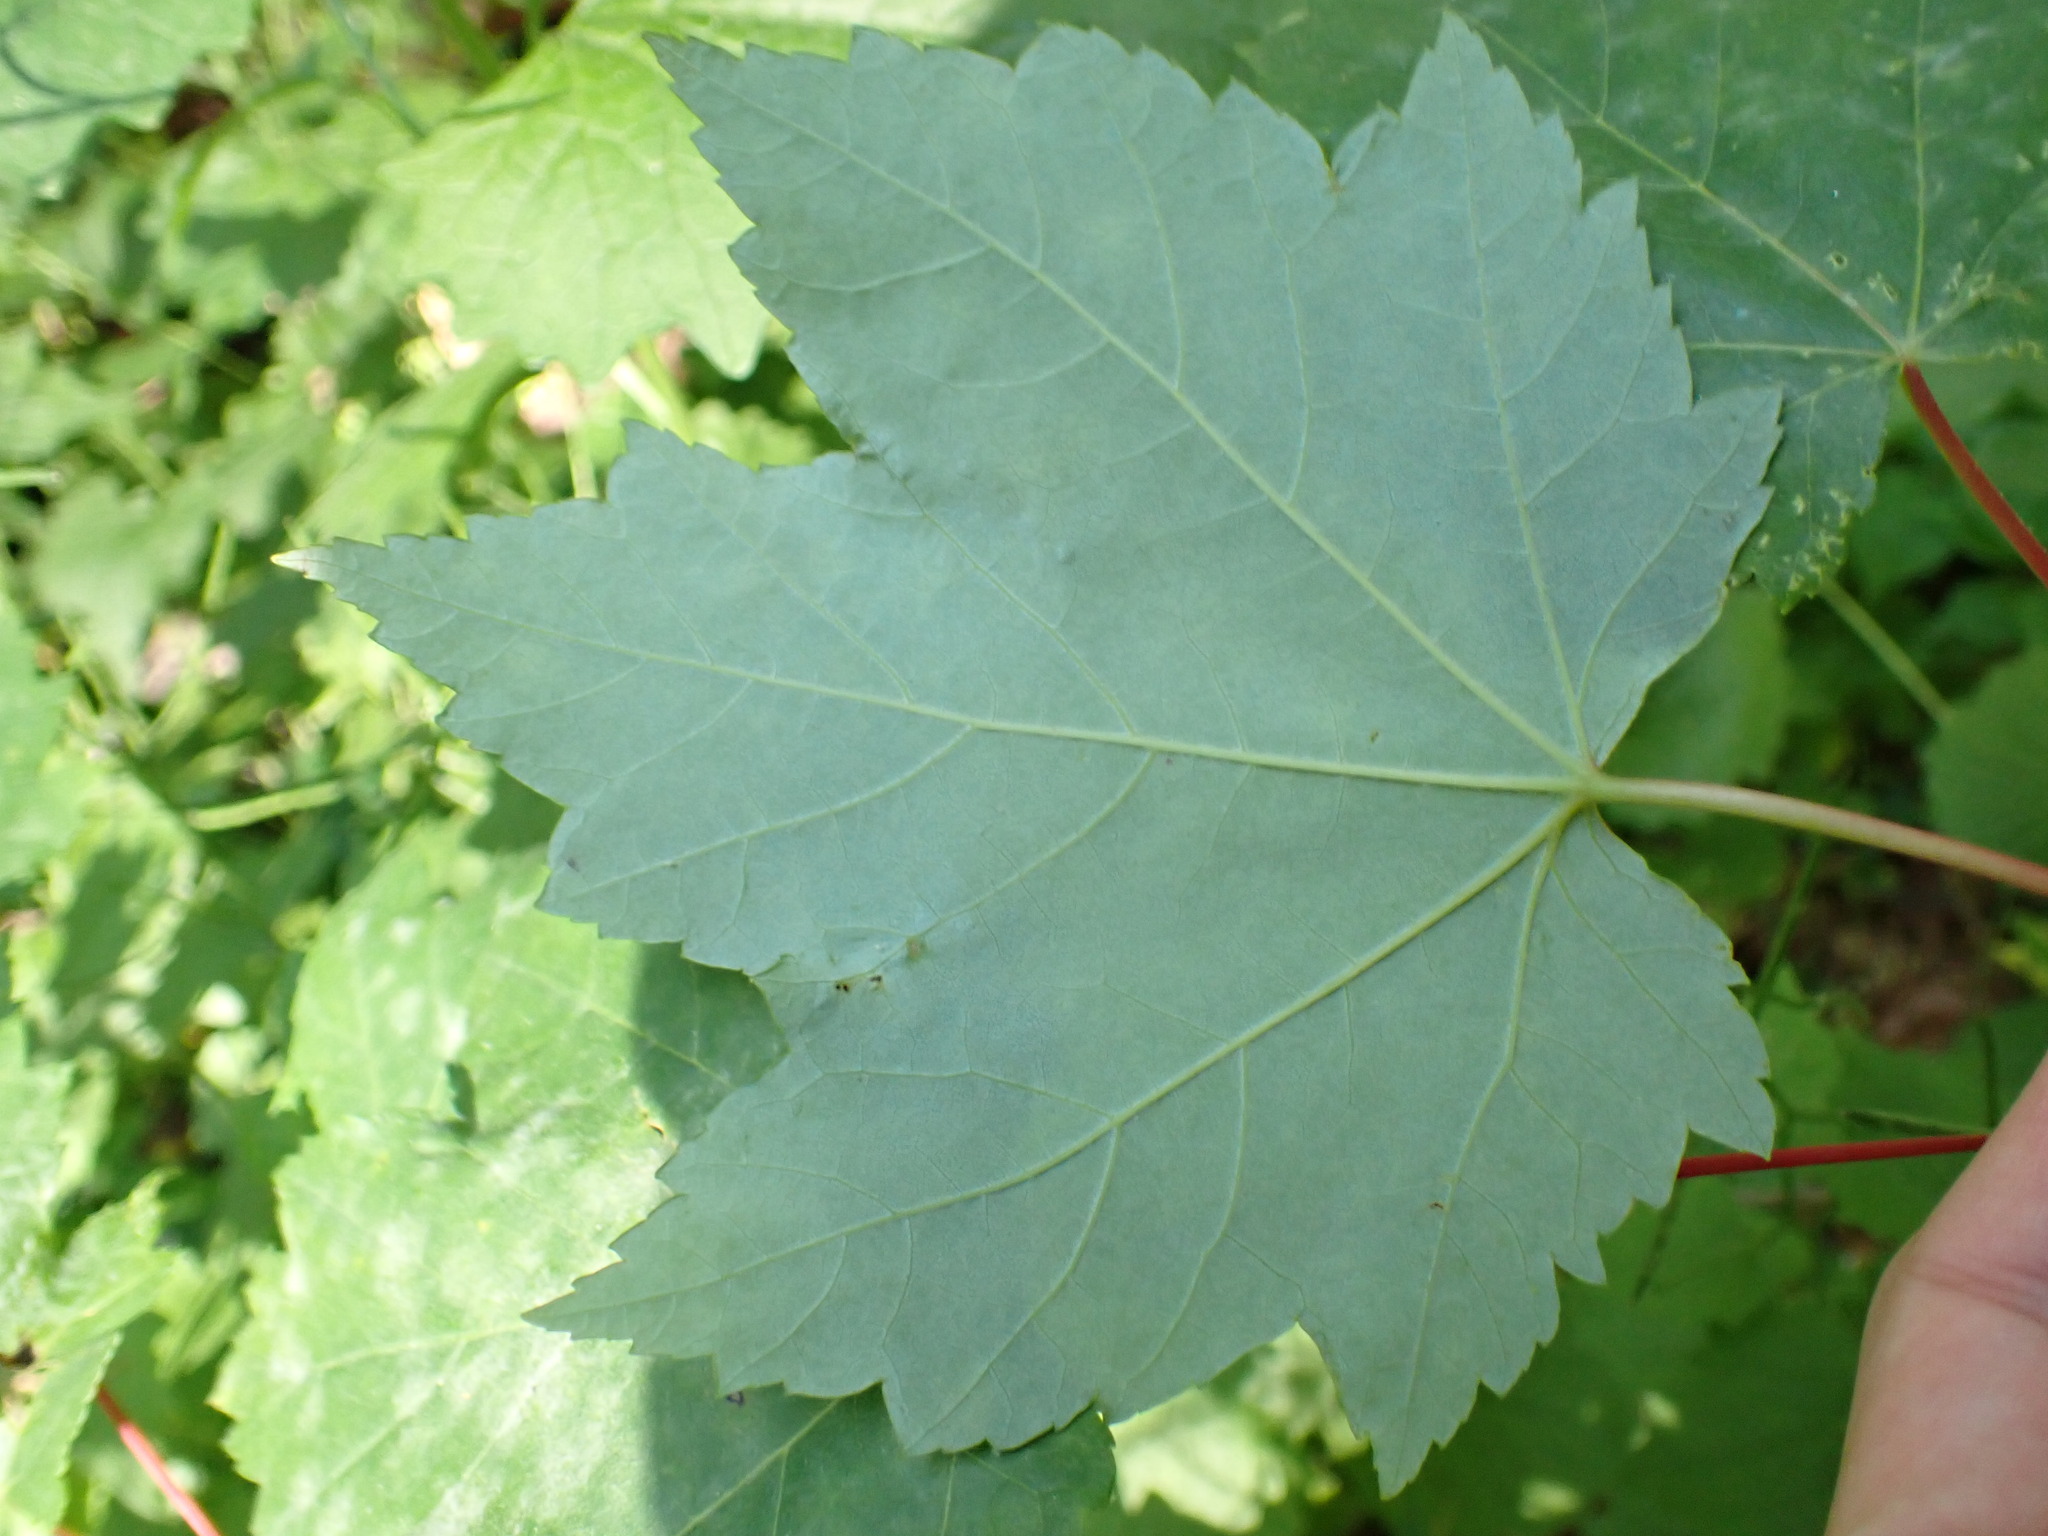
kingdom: Plantae
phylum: Tracheophyta
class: Magnoliopsida
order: Sapindales
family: Sapindaceae
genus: Acer
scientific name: Acer rubrum
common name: Red maple
